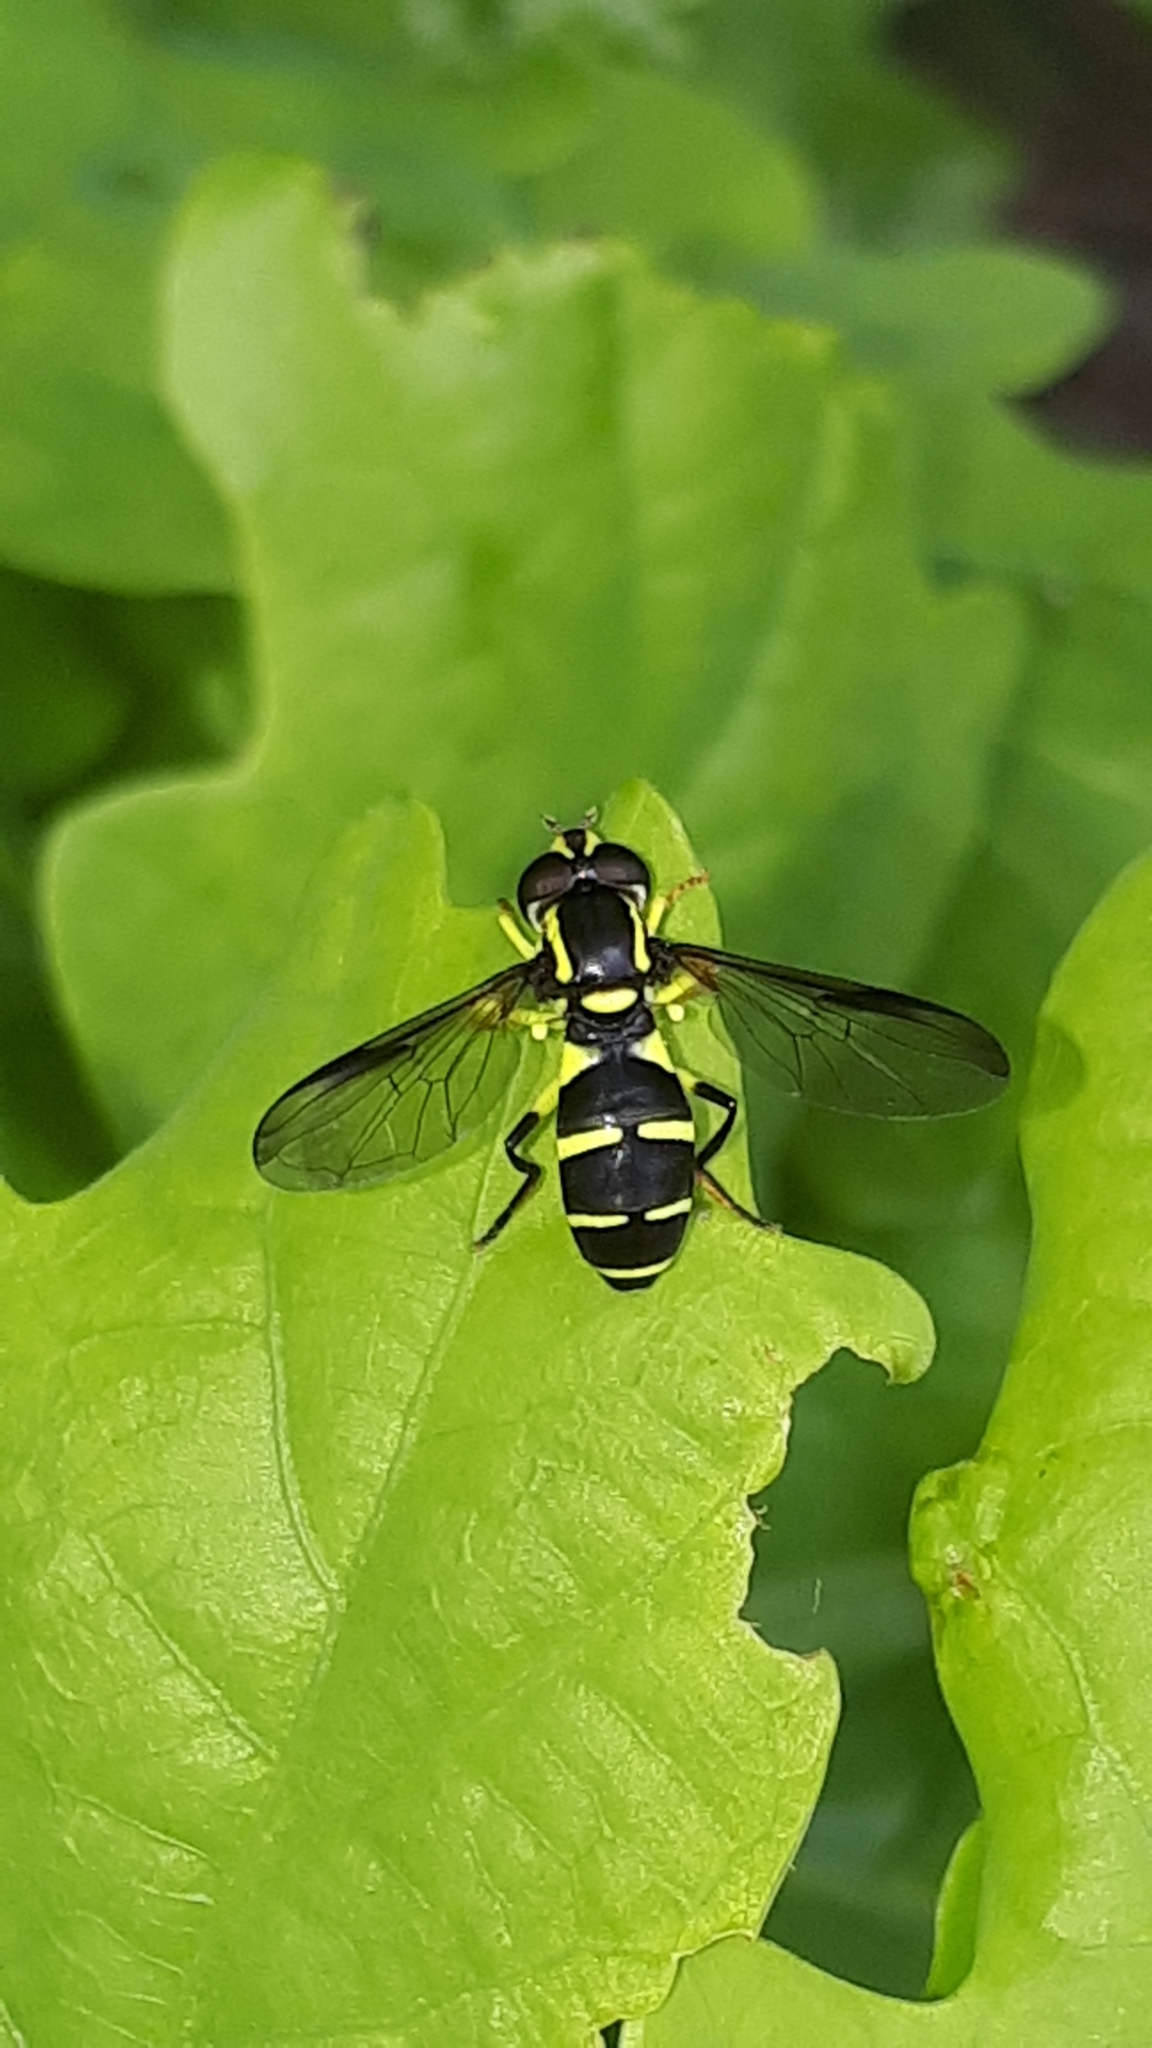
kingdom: Animalia
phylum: Arthropoda
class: Insecta
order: Diptera
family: Syrphidae
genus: Philhelius
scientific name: Philhelius dives
